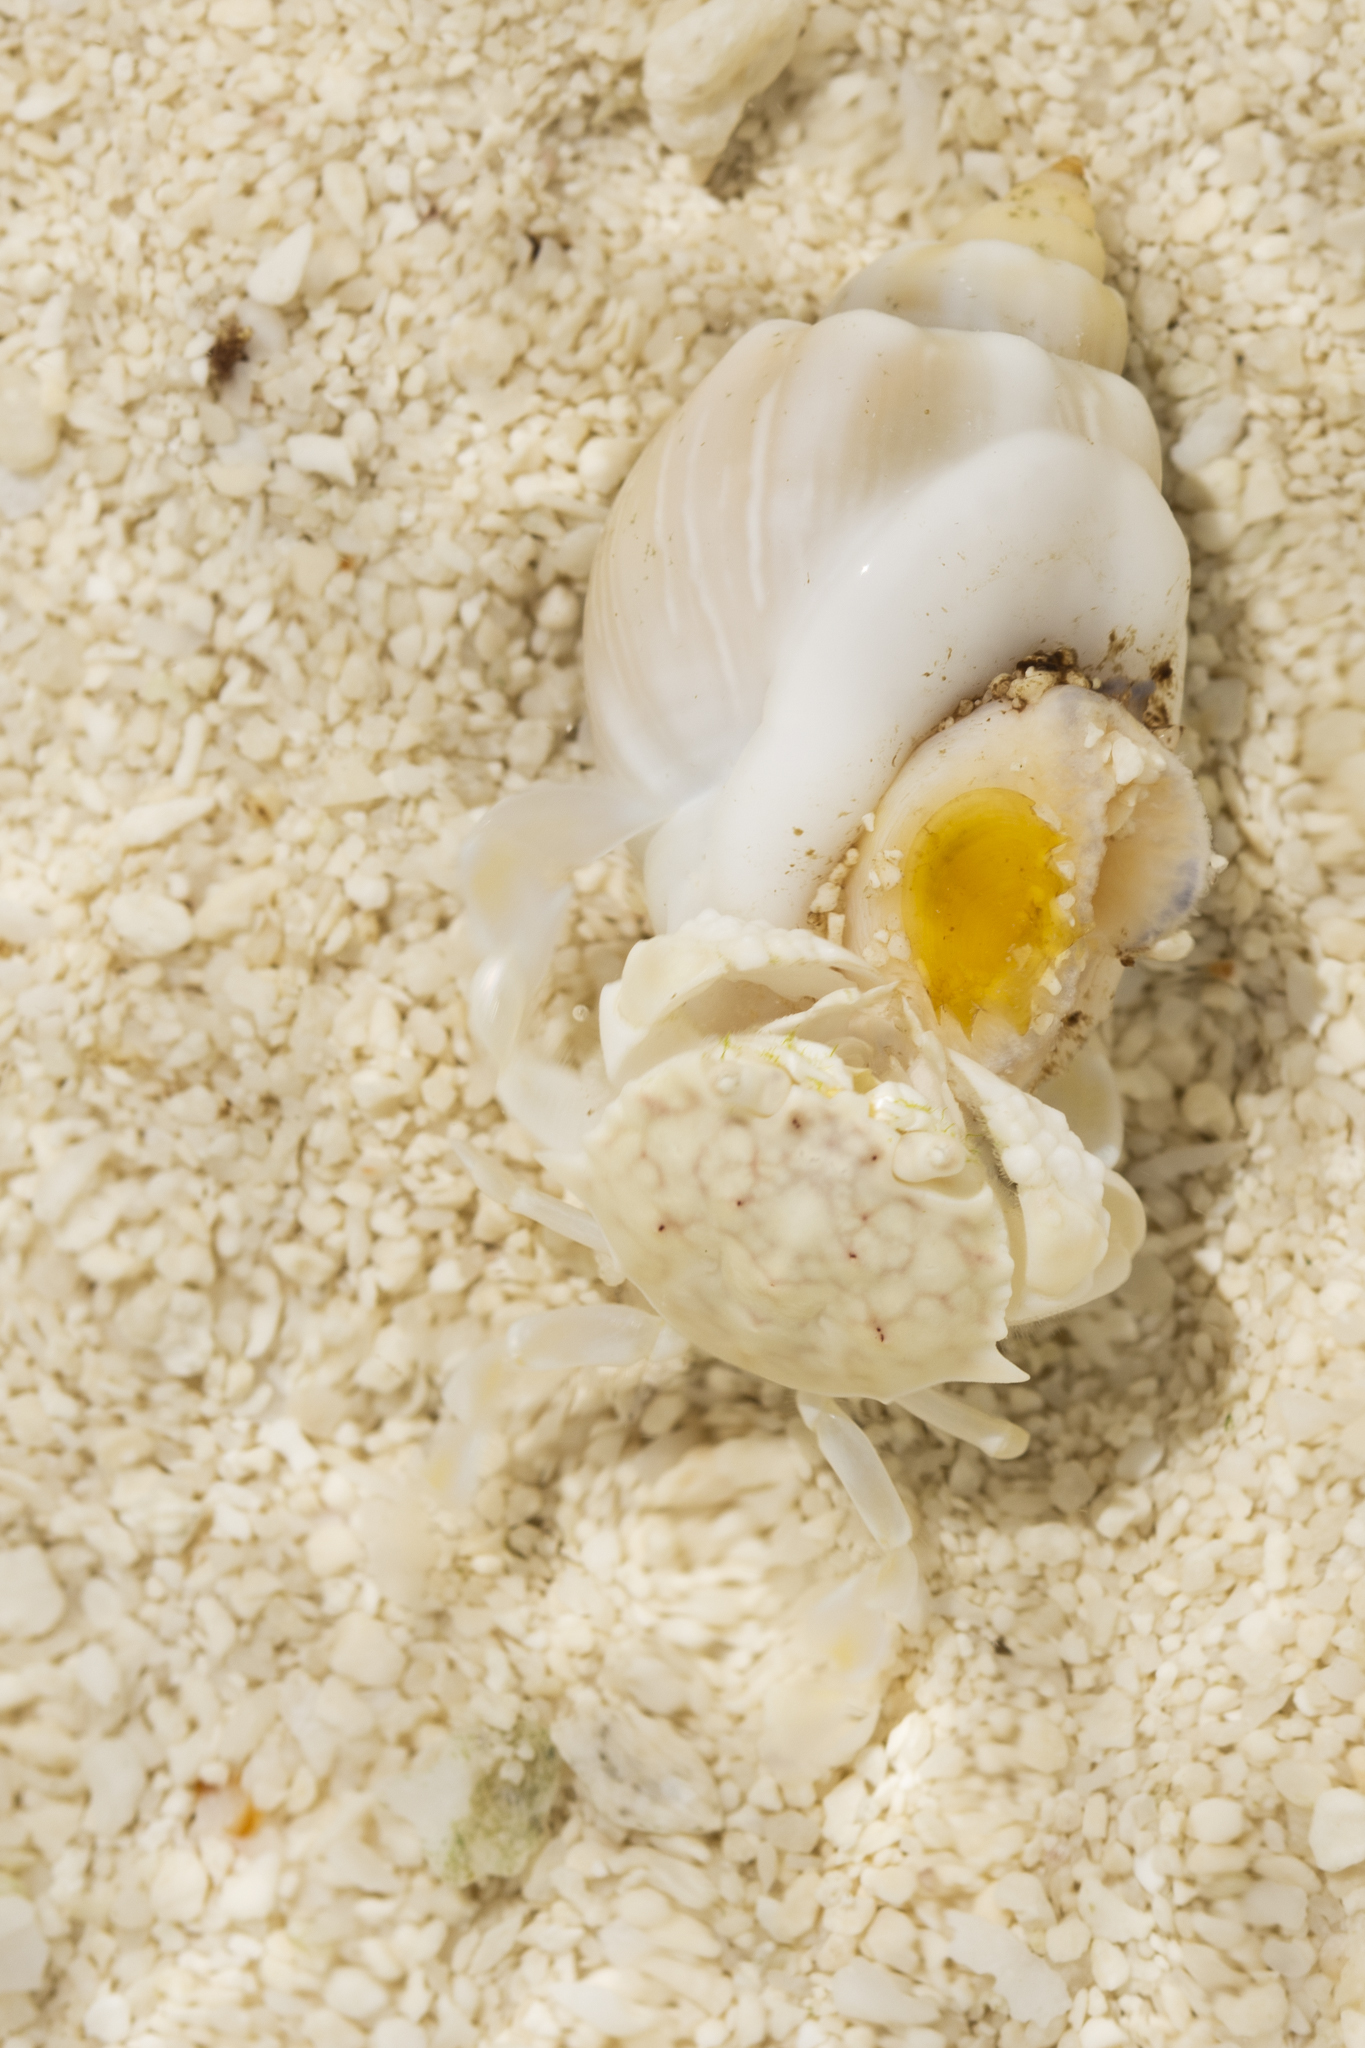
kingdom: Animalia
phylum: Mollusca
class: Gastropoda
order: Neogastropoda
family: Nassariidae
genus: Nassarius
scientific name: Nassarius coronatus
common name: Crowned nassa
